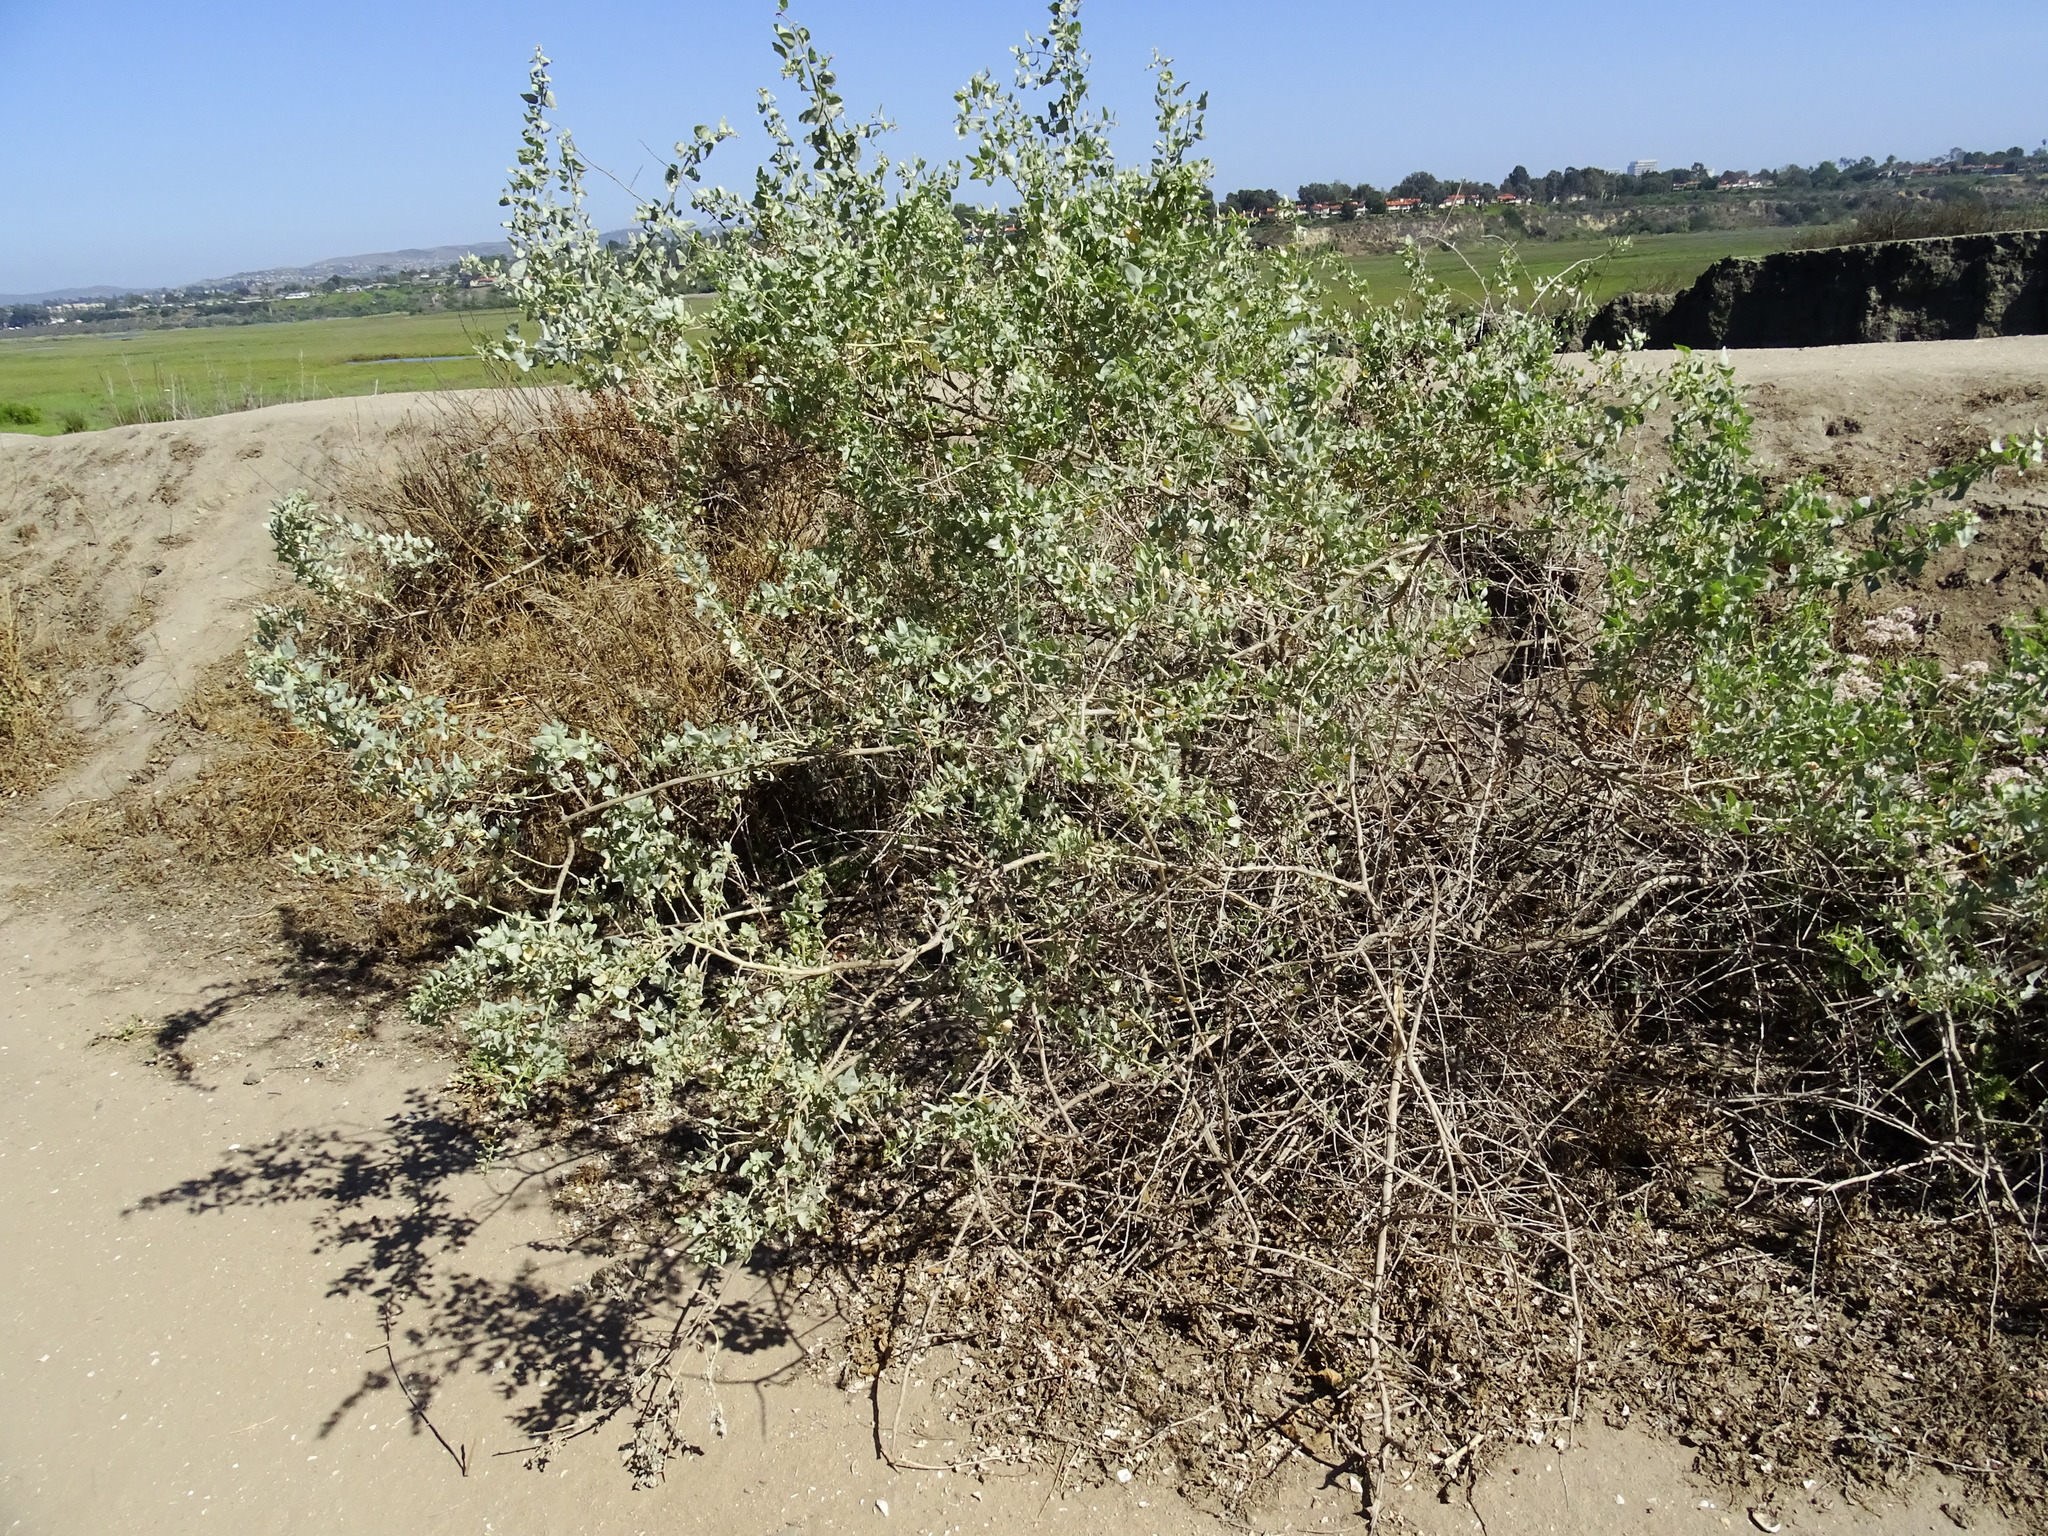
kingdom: Plantae
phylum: Tracheophyta
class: Magnoliopsida
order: Caryophyllales
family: Amaranthaceae
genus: Atriplex
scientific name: Atriplex lentiformis
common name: Big saltbush
